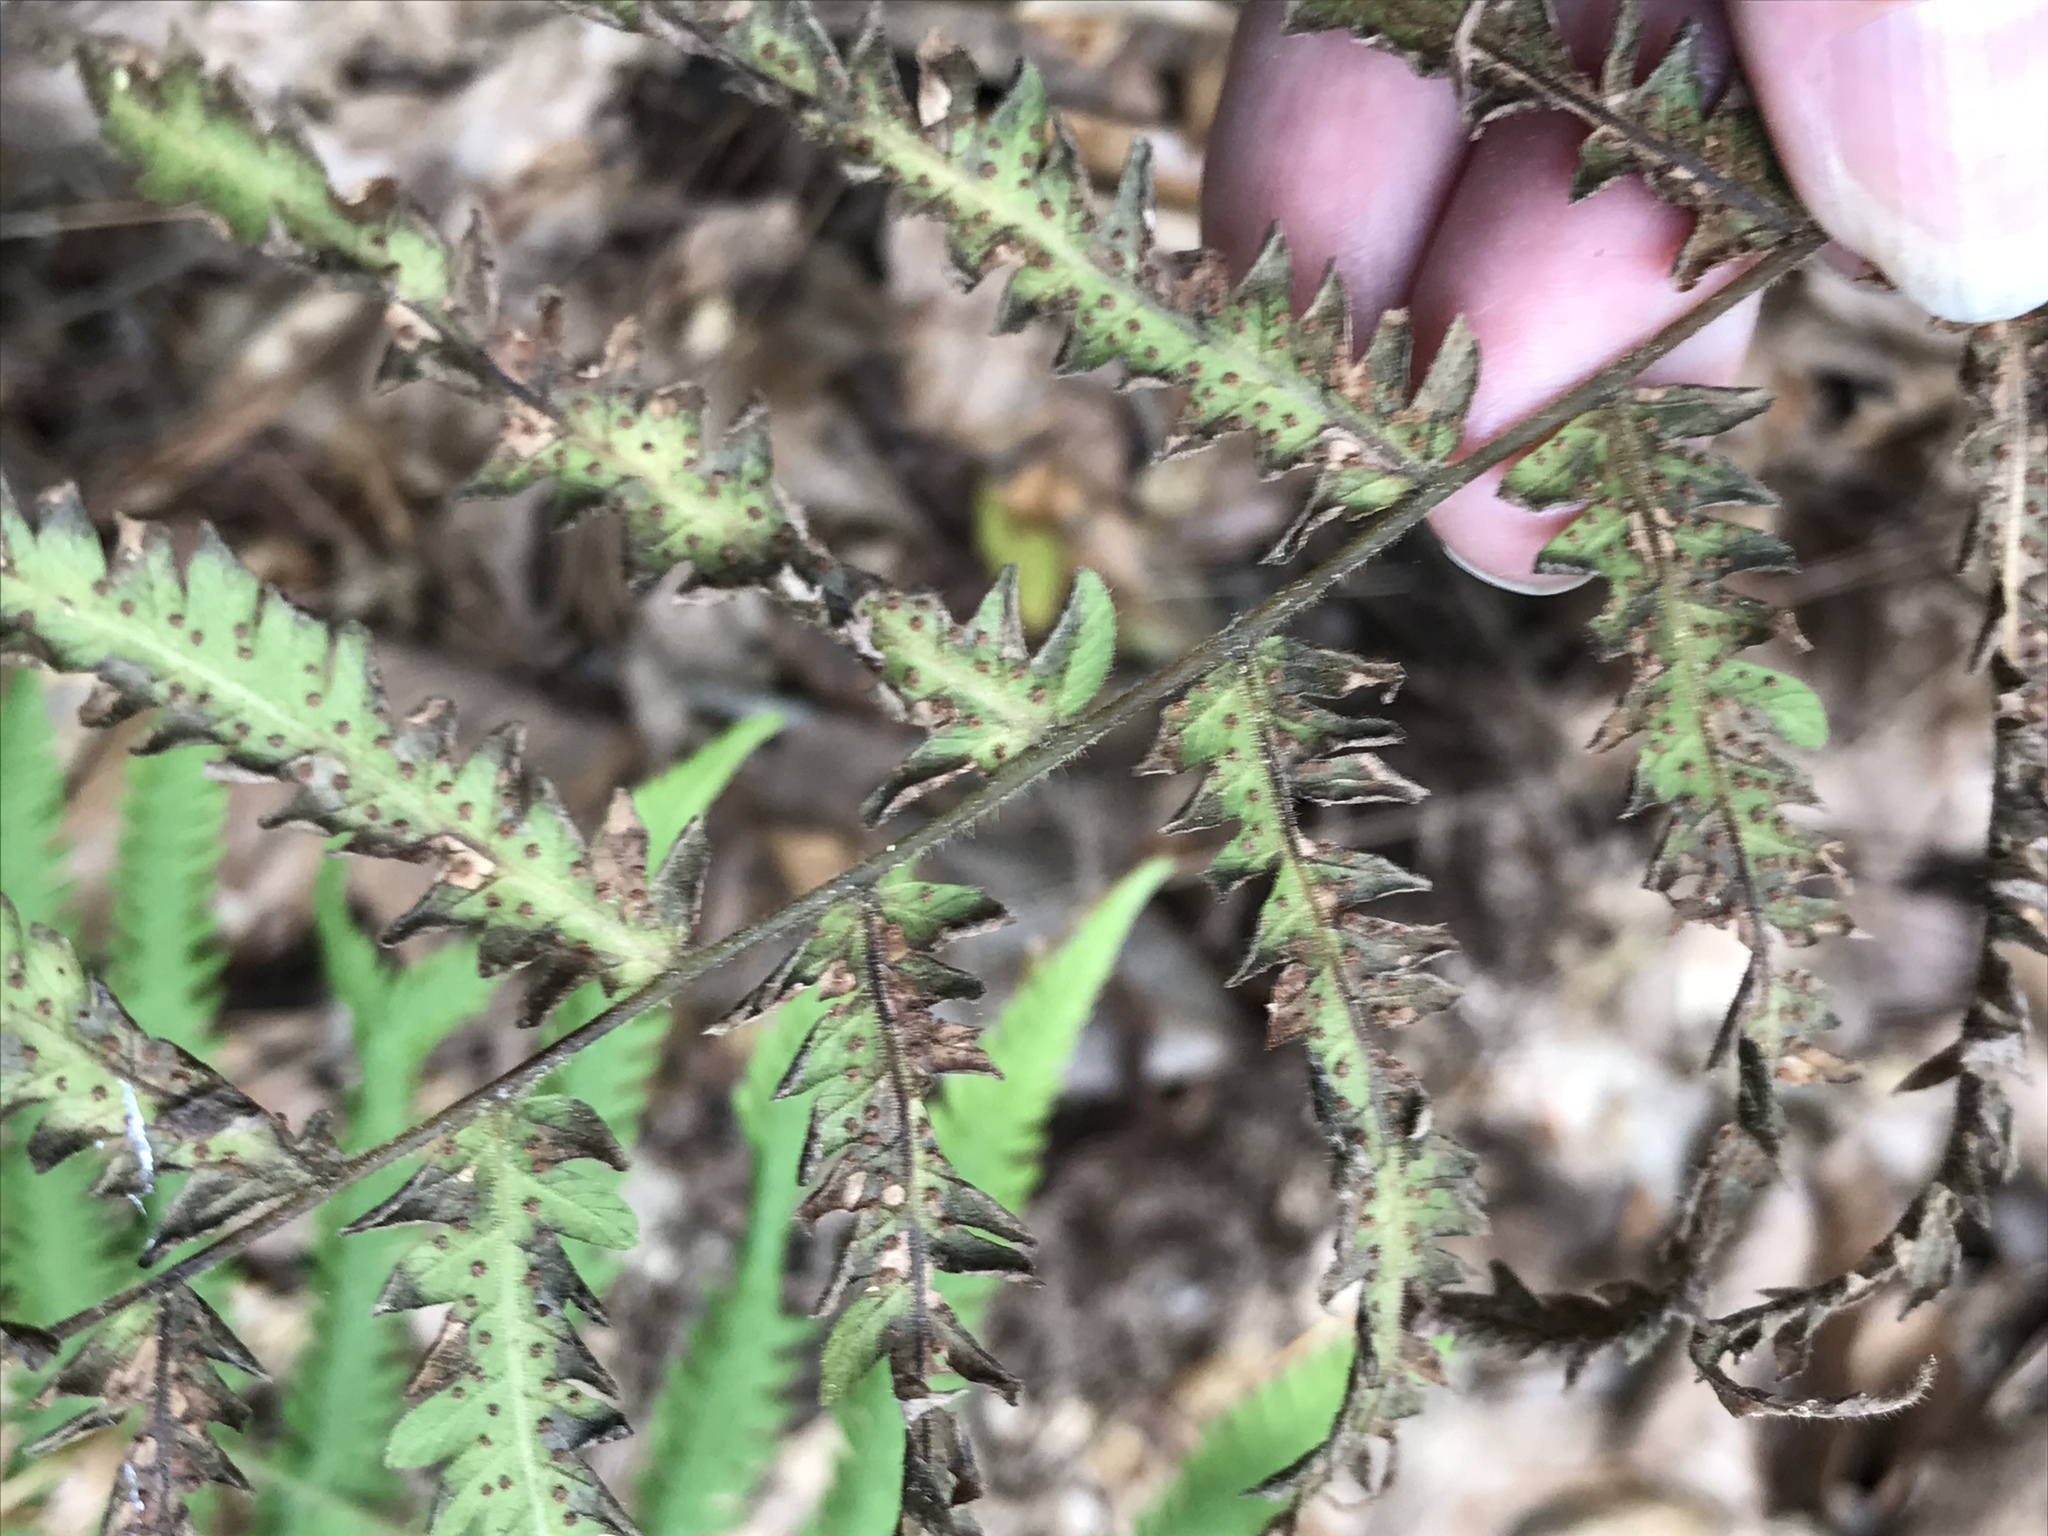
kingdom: Plantae
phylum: Tracheophyta
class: Polypodiopsida
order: Polypodiales
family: Thelypteridaceae
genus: Pelazoneuron
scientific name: Pelazoneuron kunthii
